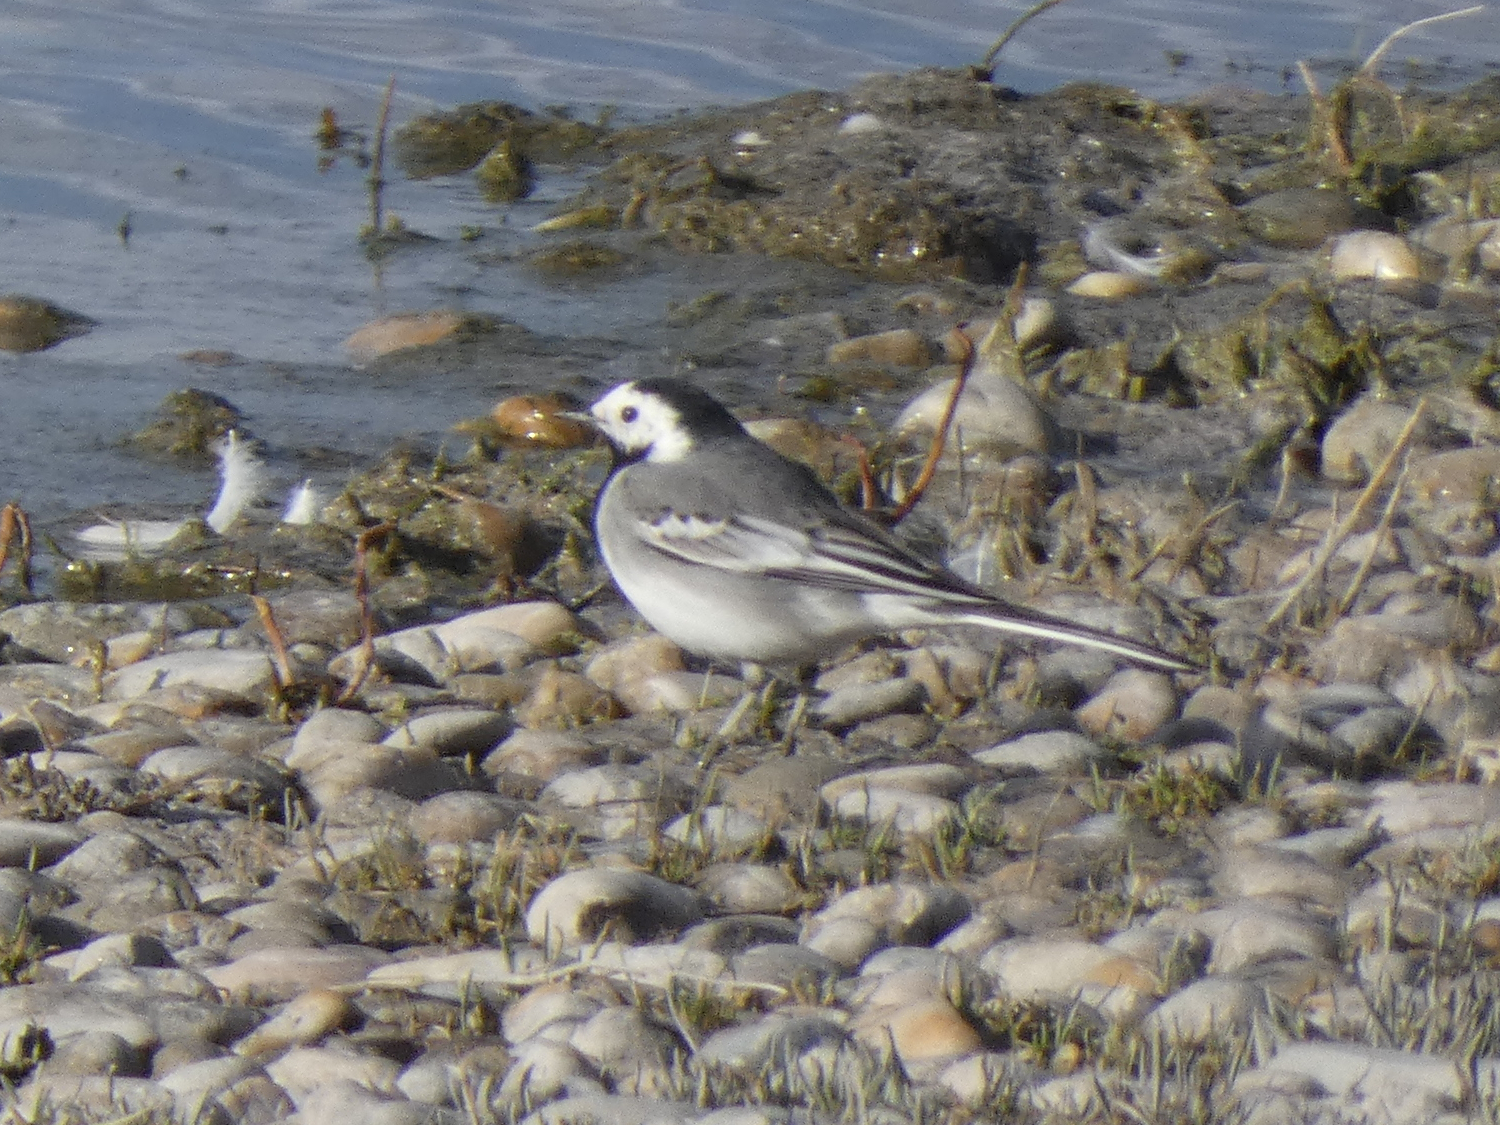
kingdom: Animalia
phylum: Chordata
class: Aves
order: Passeriformes
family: Motacillidae
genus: Motacilla
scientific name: Motacilla alba
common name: White wagtail
